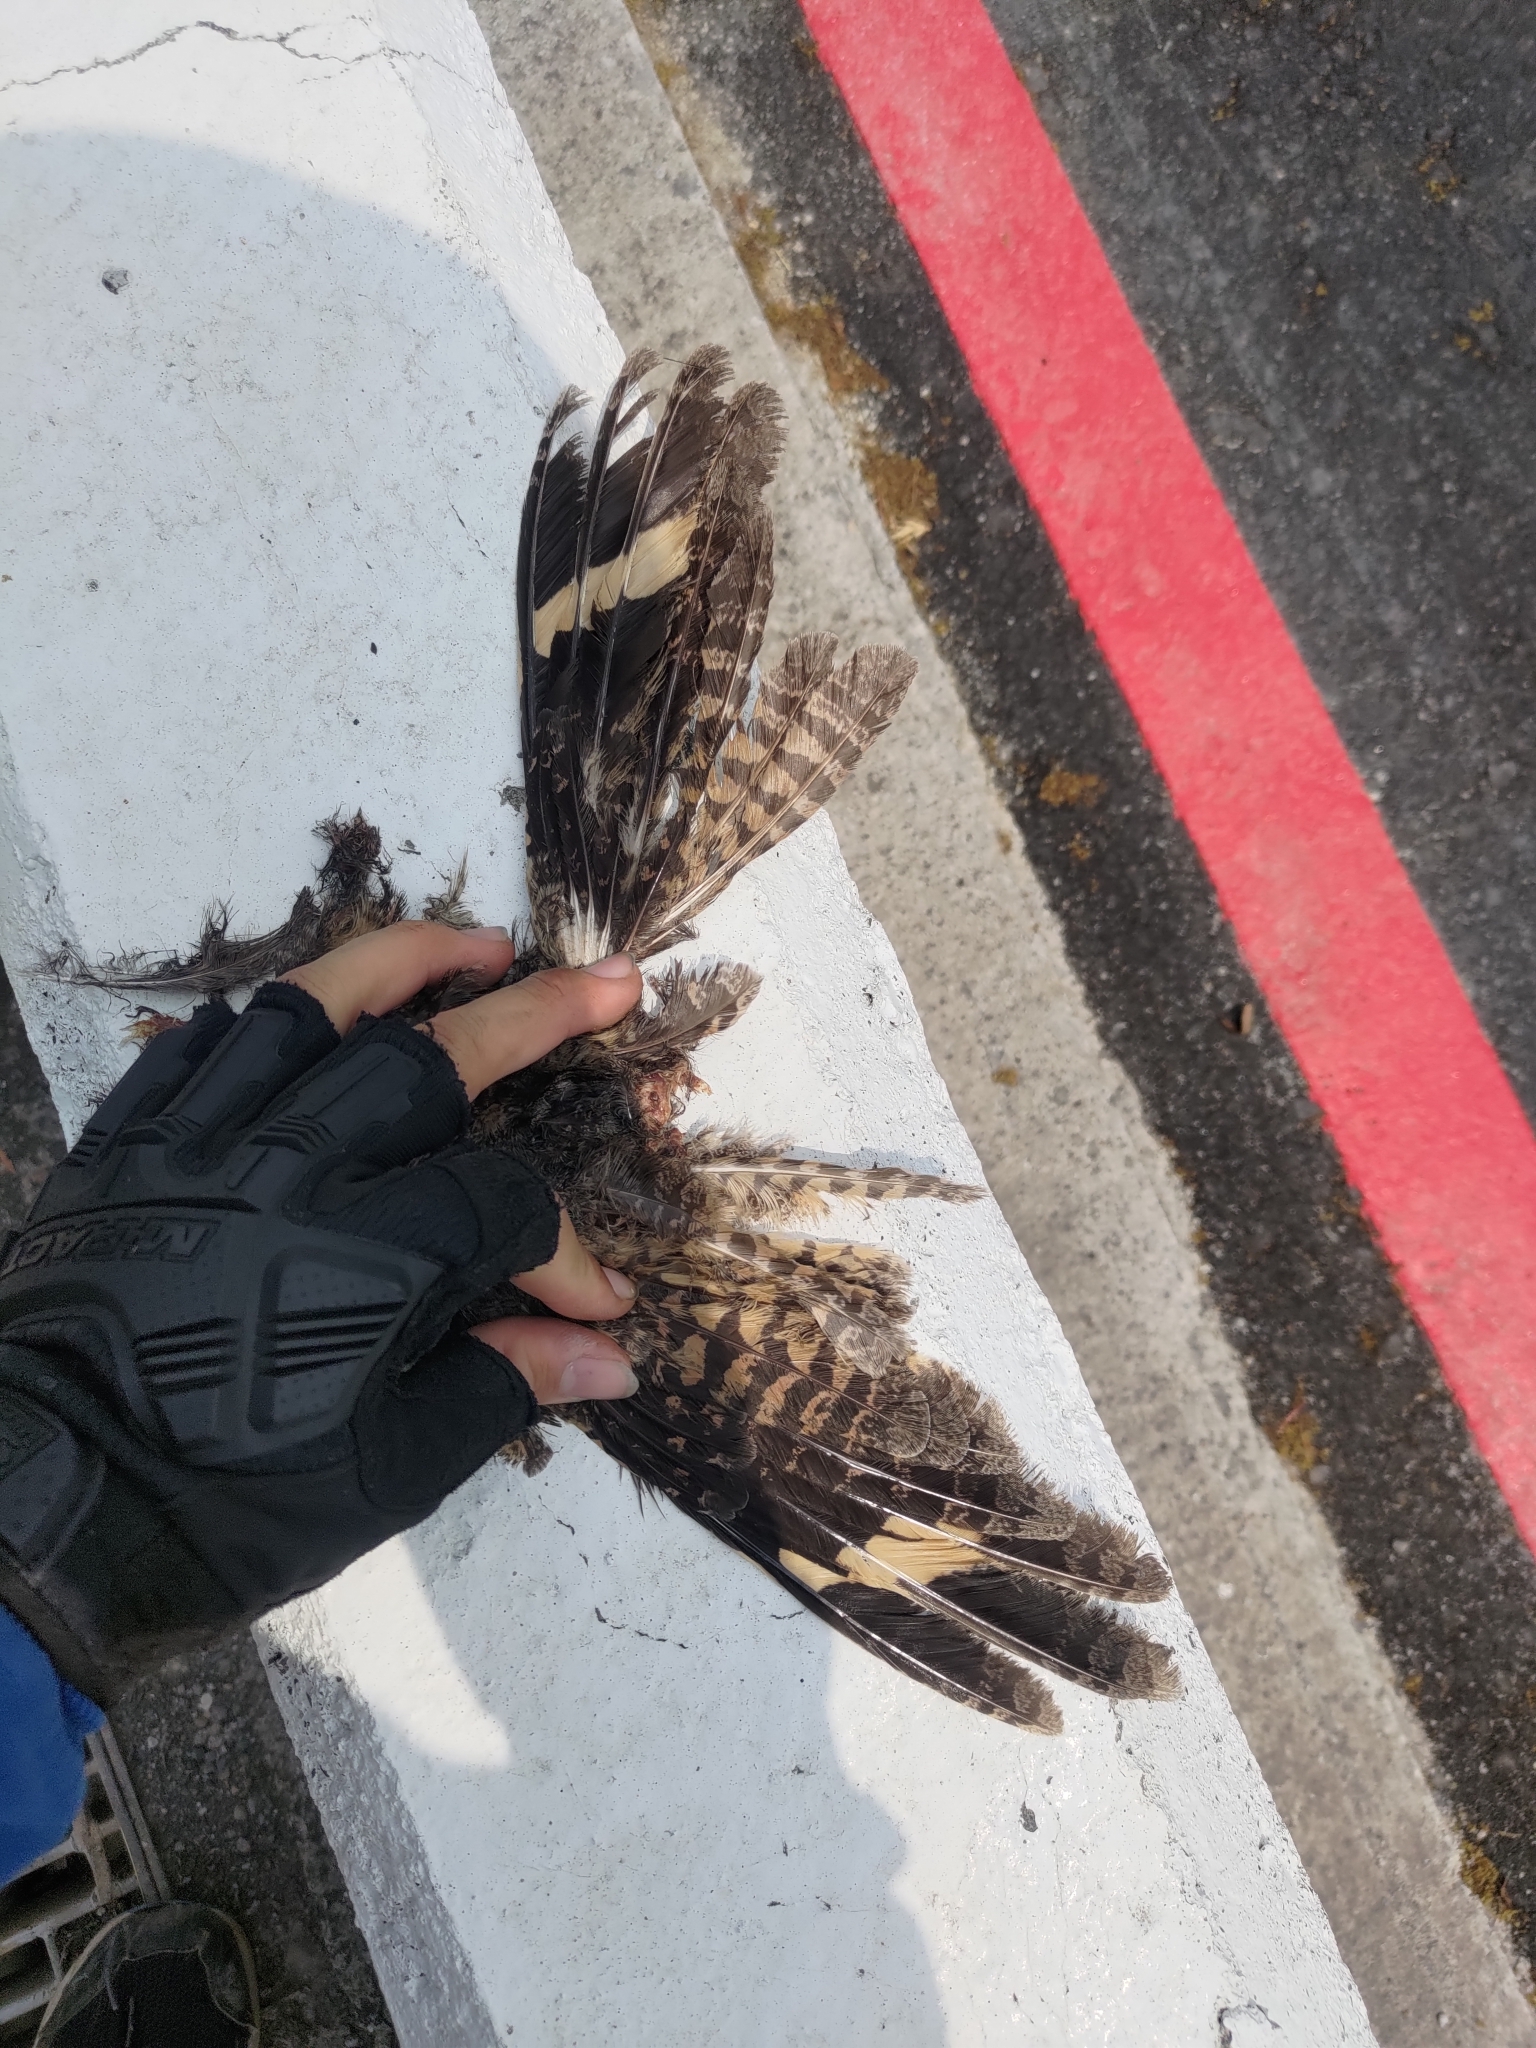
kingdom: Animalia
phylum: Chordata
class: Aves
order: Caprimulgiformes
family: Caprimulgidae
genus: Caprimulgus
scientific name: Caprimulgus affinis
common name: Savanna nightjar
